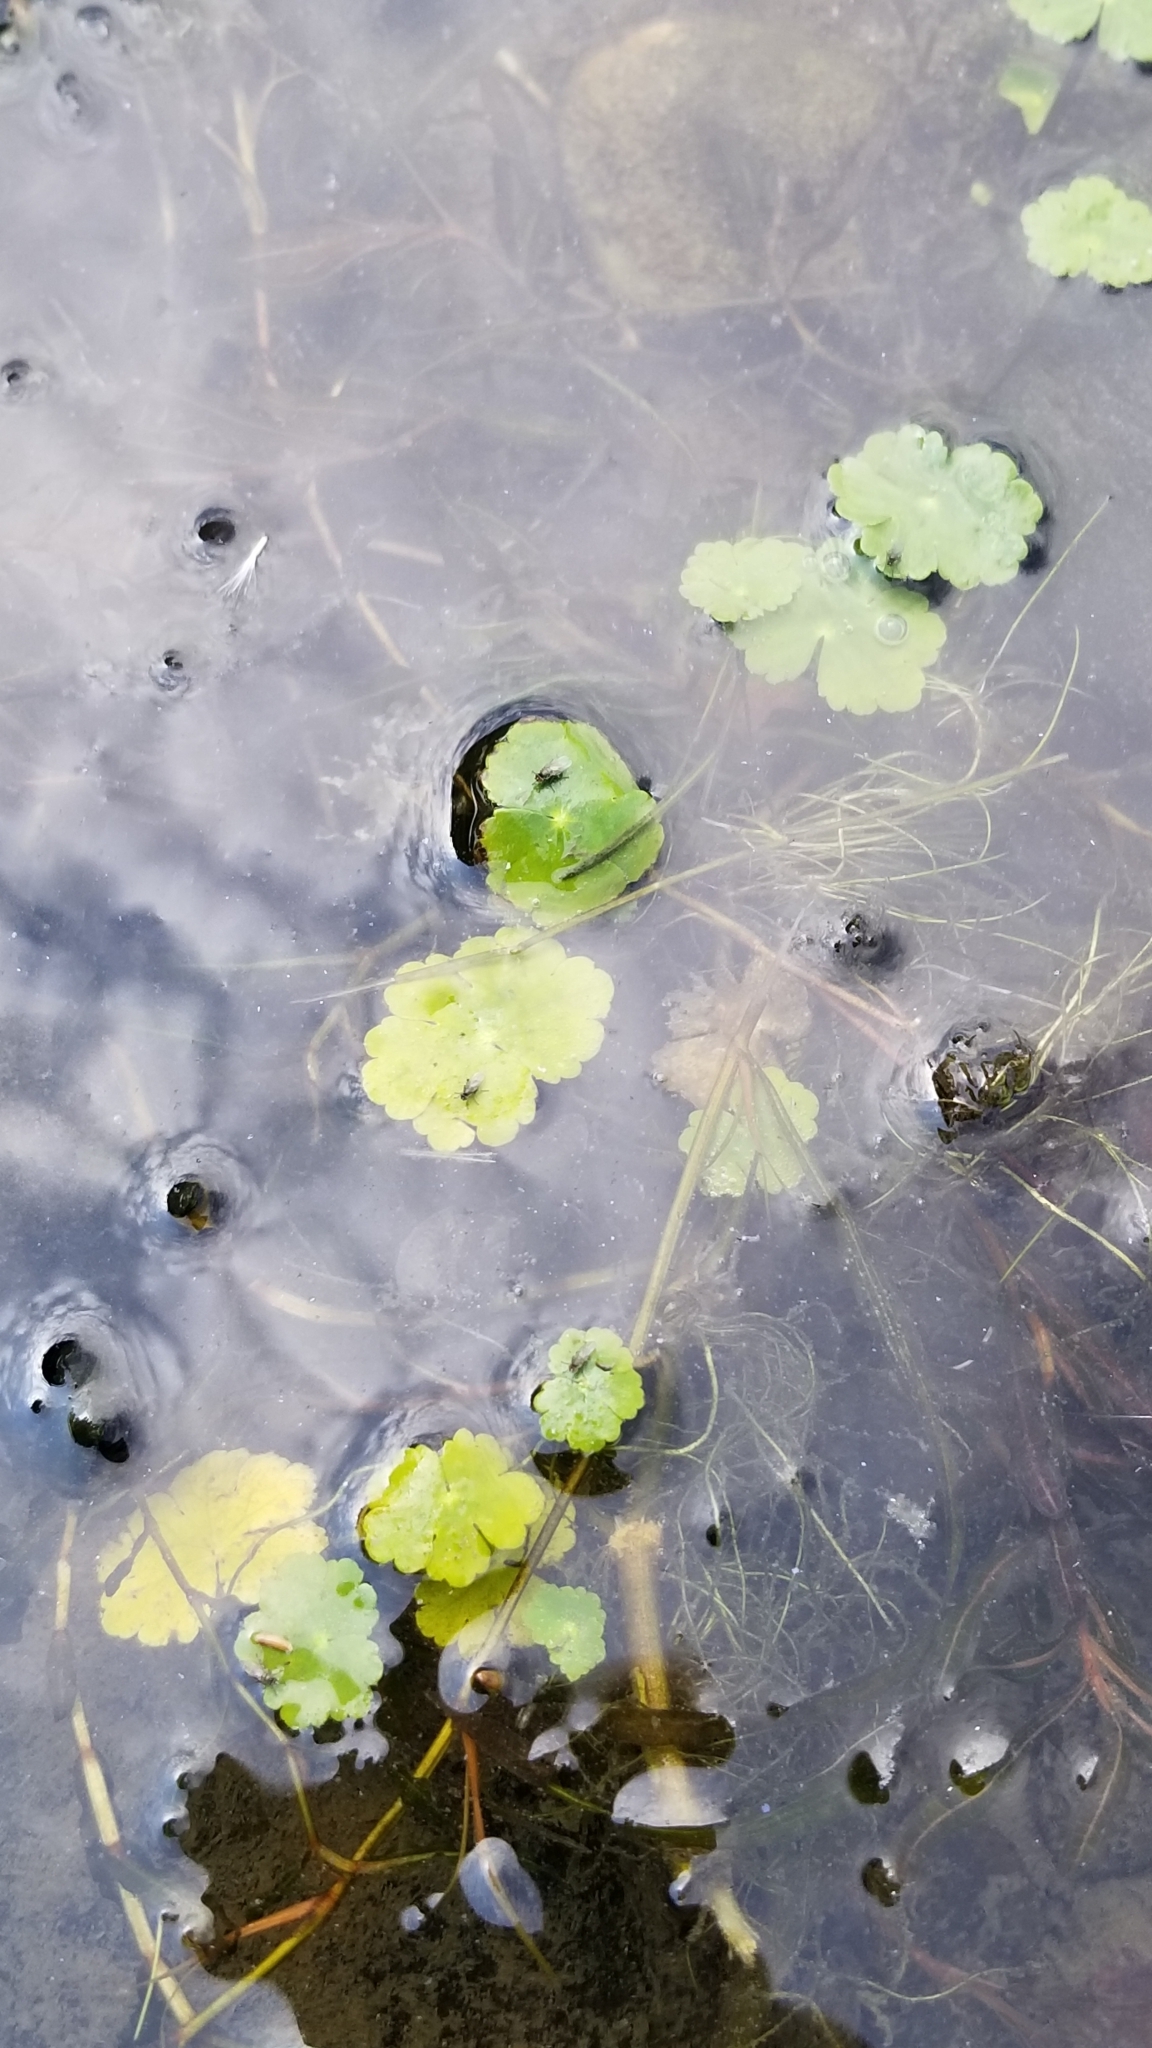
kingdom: Plantae
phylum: Tracheophyta
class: Magnoliopsida
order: Apiales
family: Araliaceae
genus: Hydrocotyle
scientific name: Hydrocotyle ranunculoides
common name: Floating pennywort
